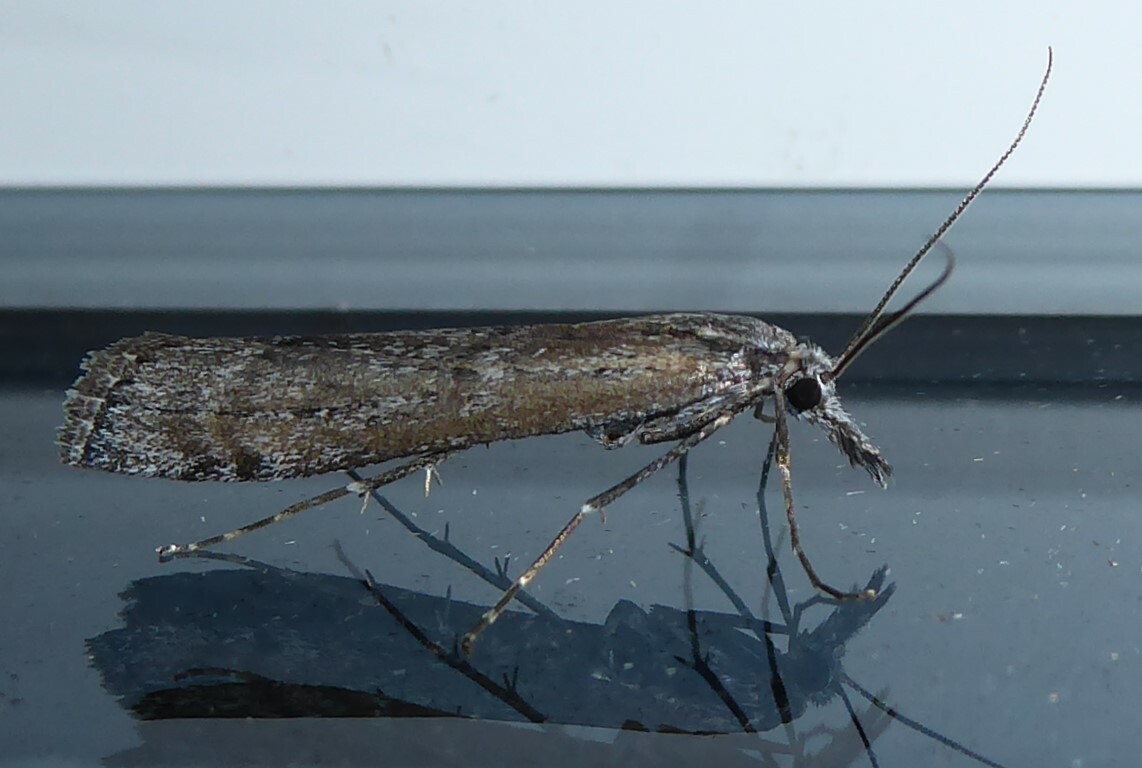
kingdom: Animalia
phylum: Arthropoda
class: Insecta
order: Lepidoptera
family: Crambidae
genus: Orocrambus
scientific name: Orocrambus cyclopicus
